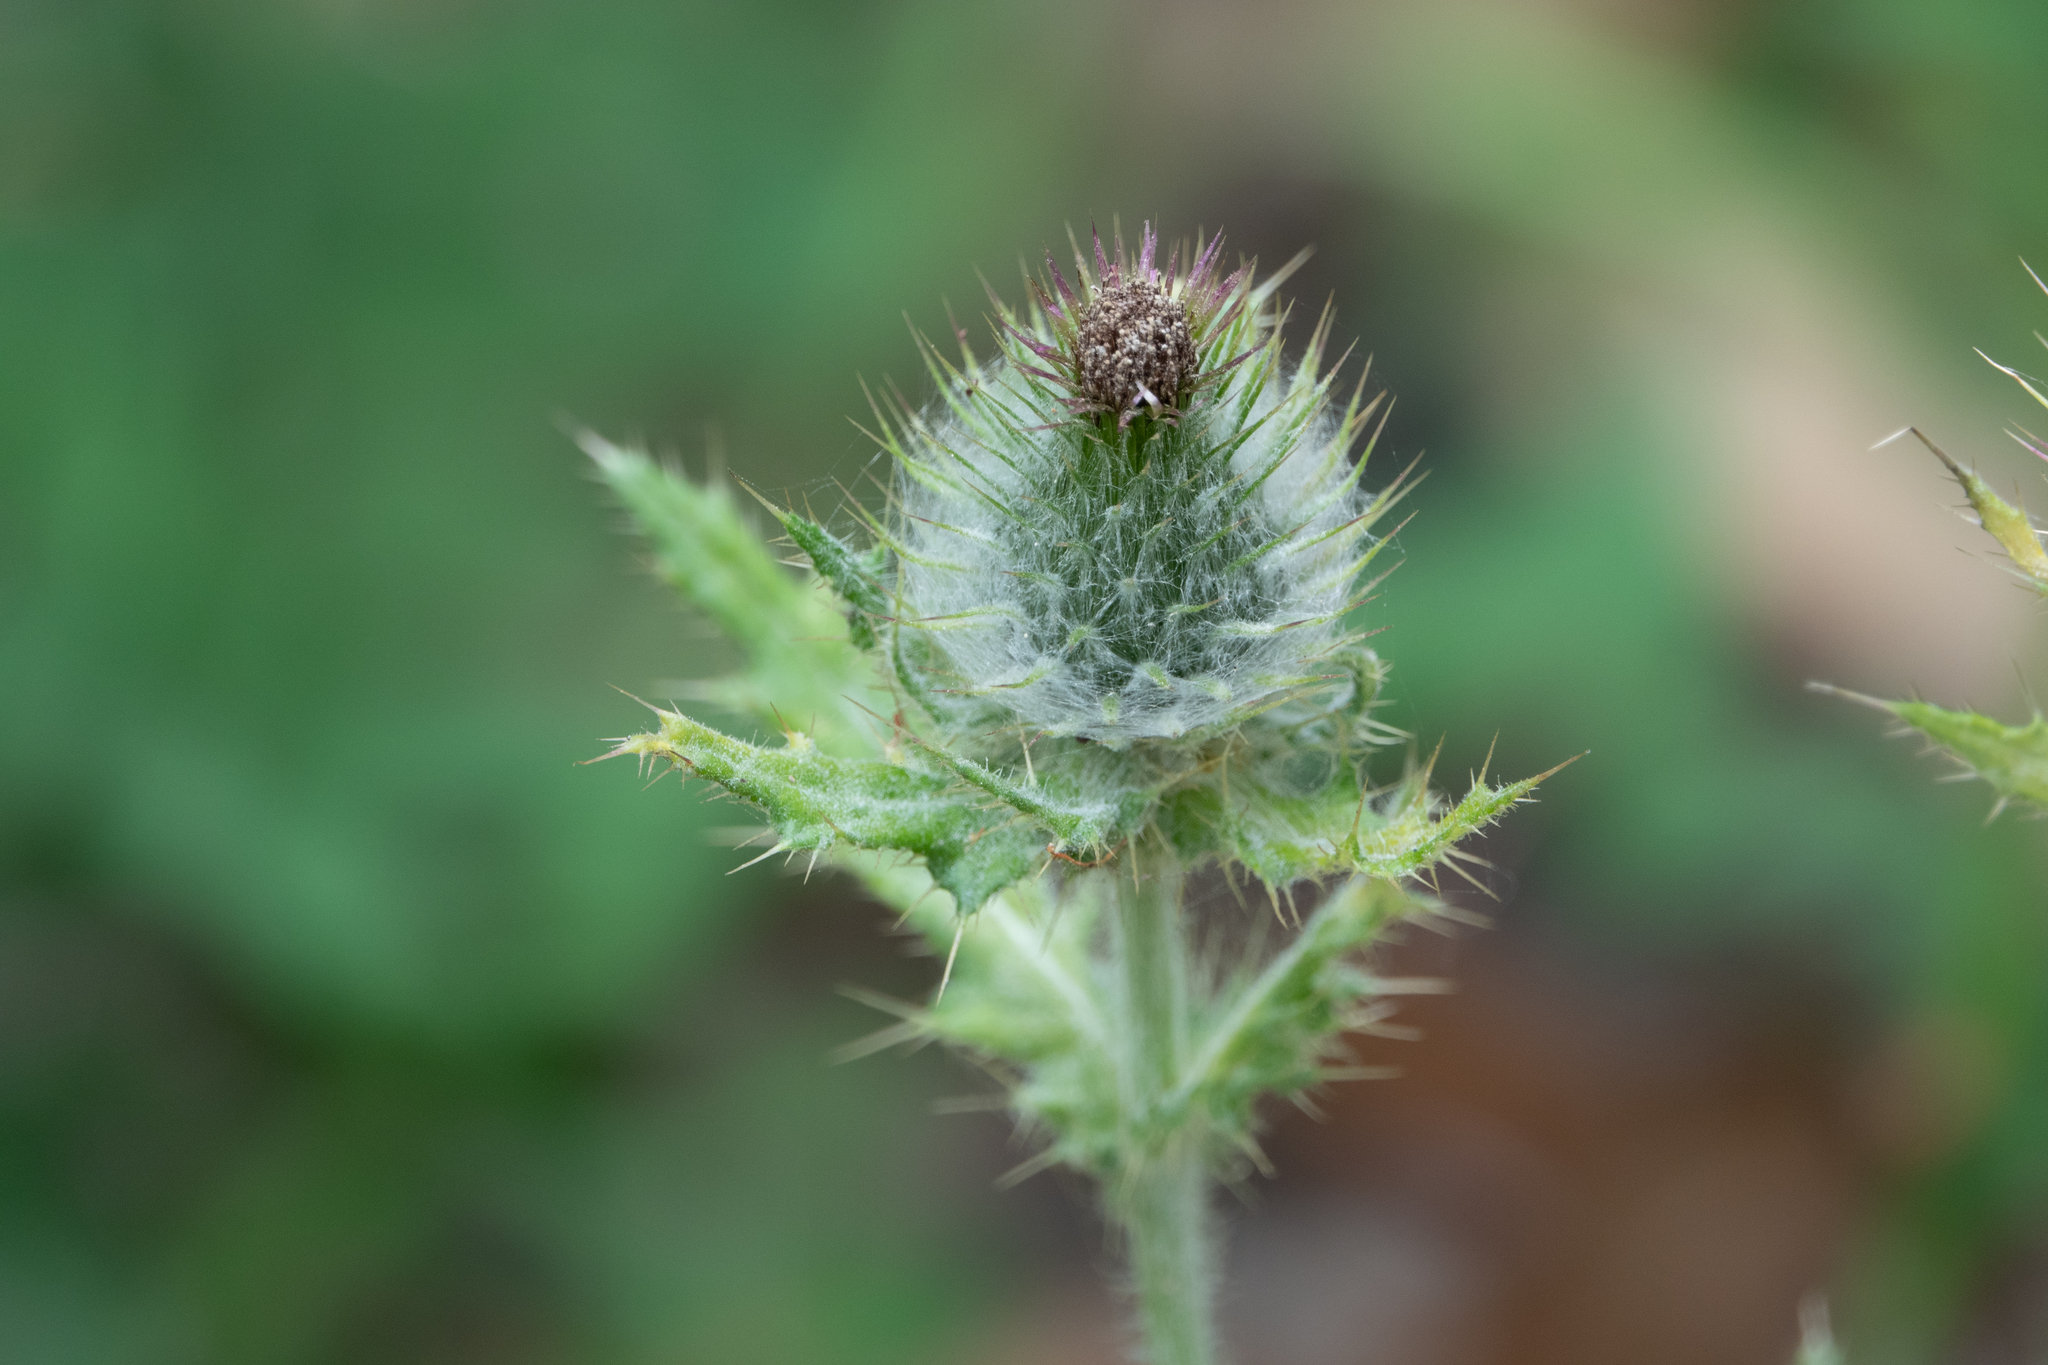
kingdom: Plantae
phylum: Tracheophyta
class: Magnoliopsida
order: Asterales
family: Asteraceae
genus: Cirsium
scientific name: Cirsium occidentale
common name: Western thistle
